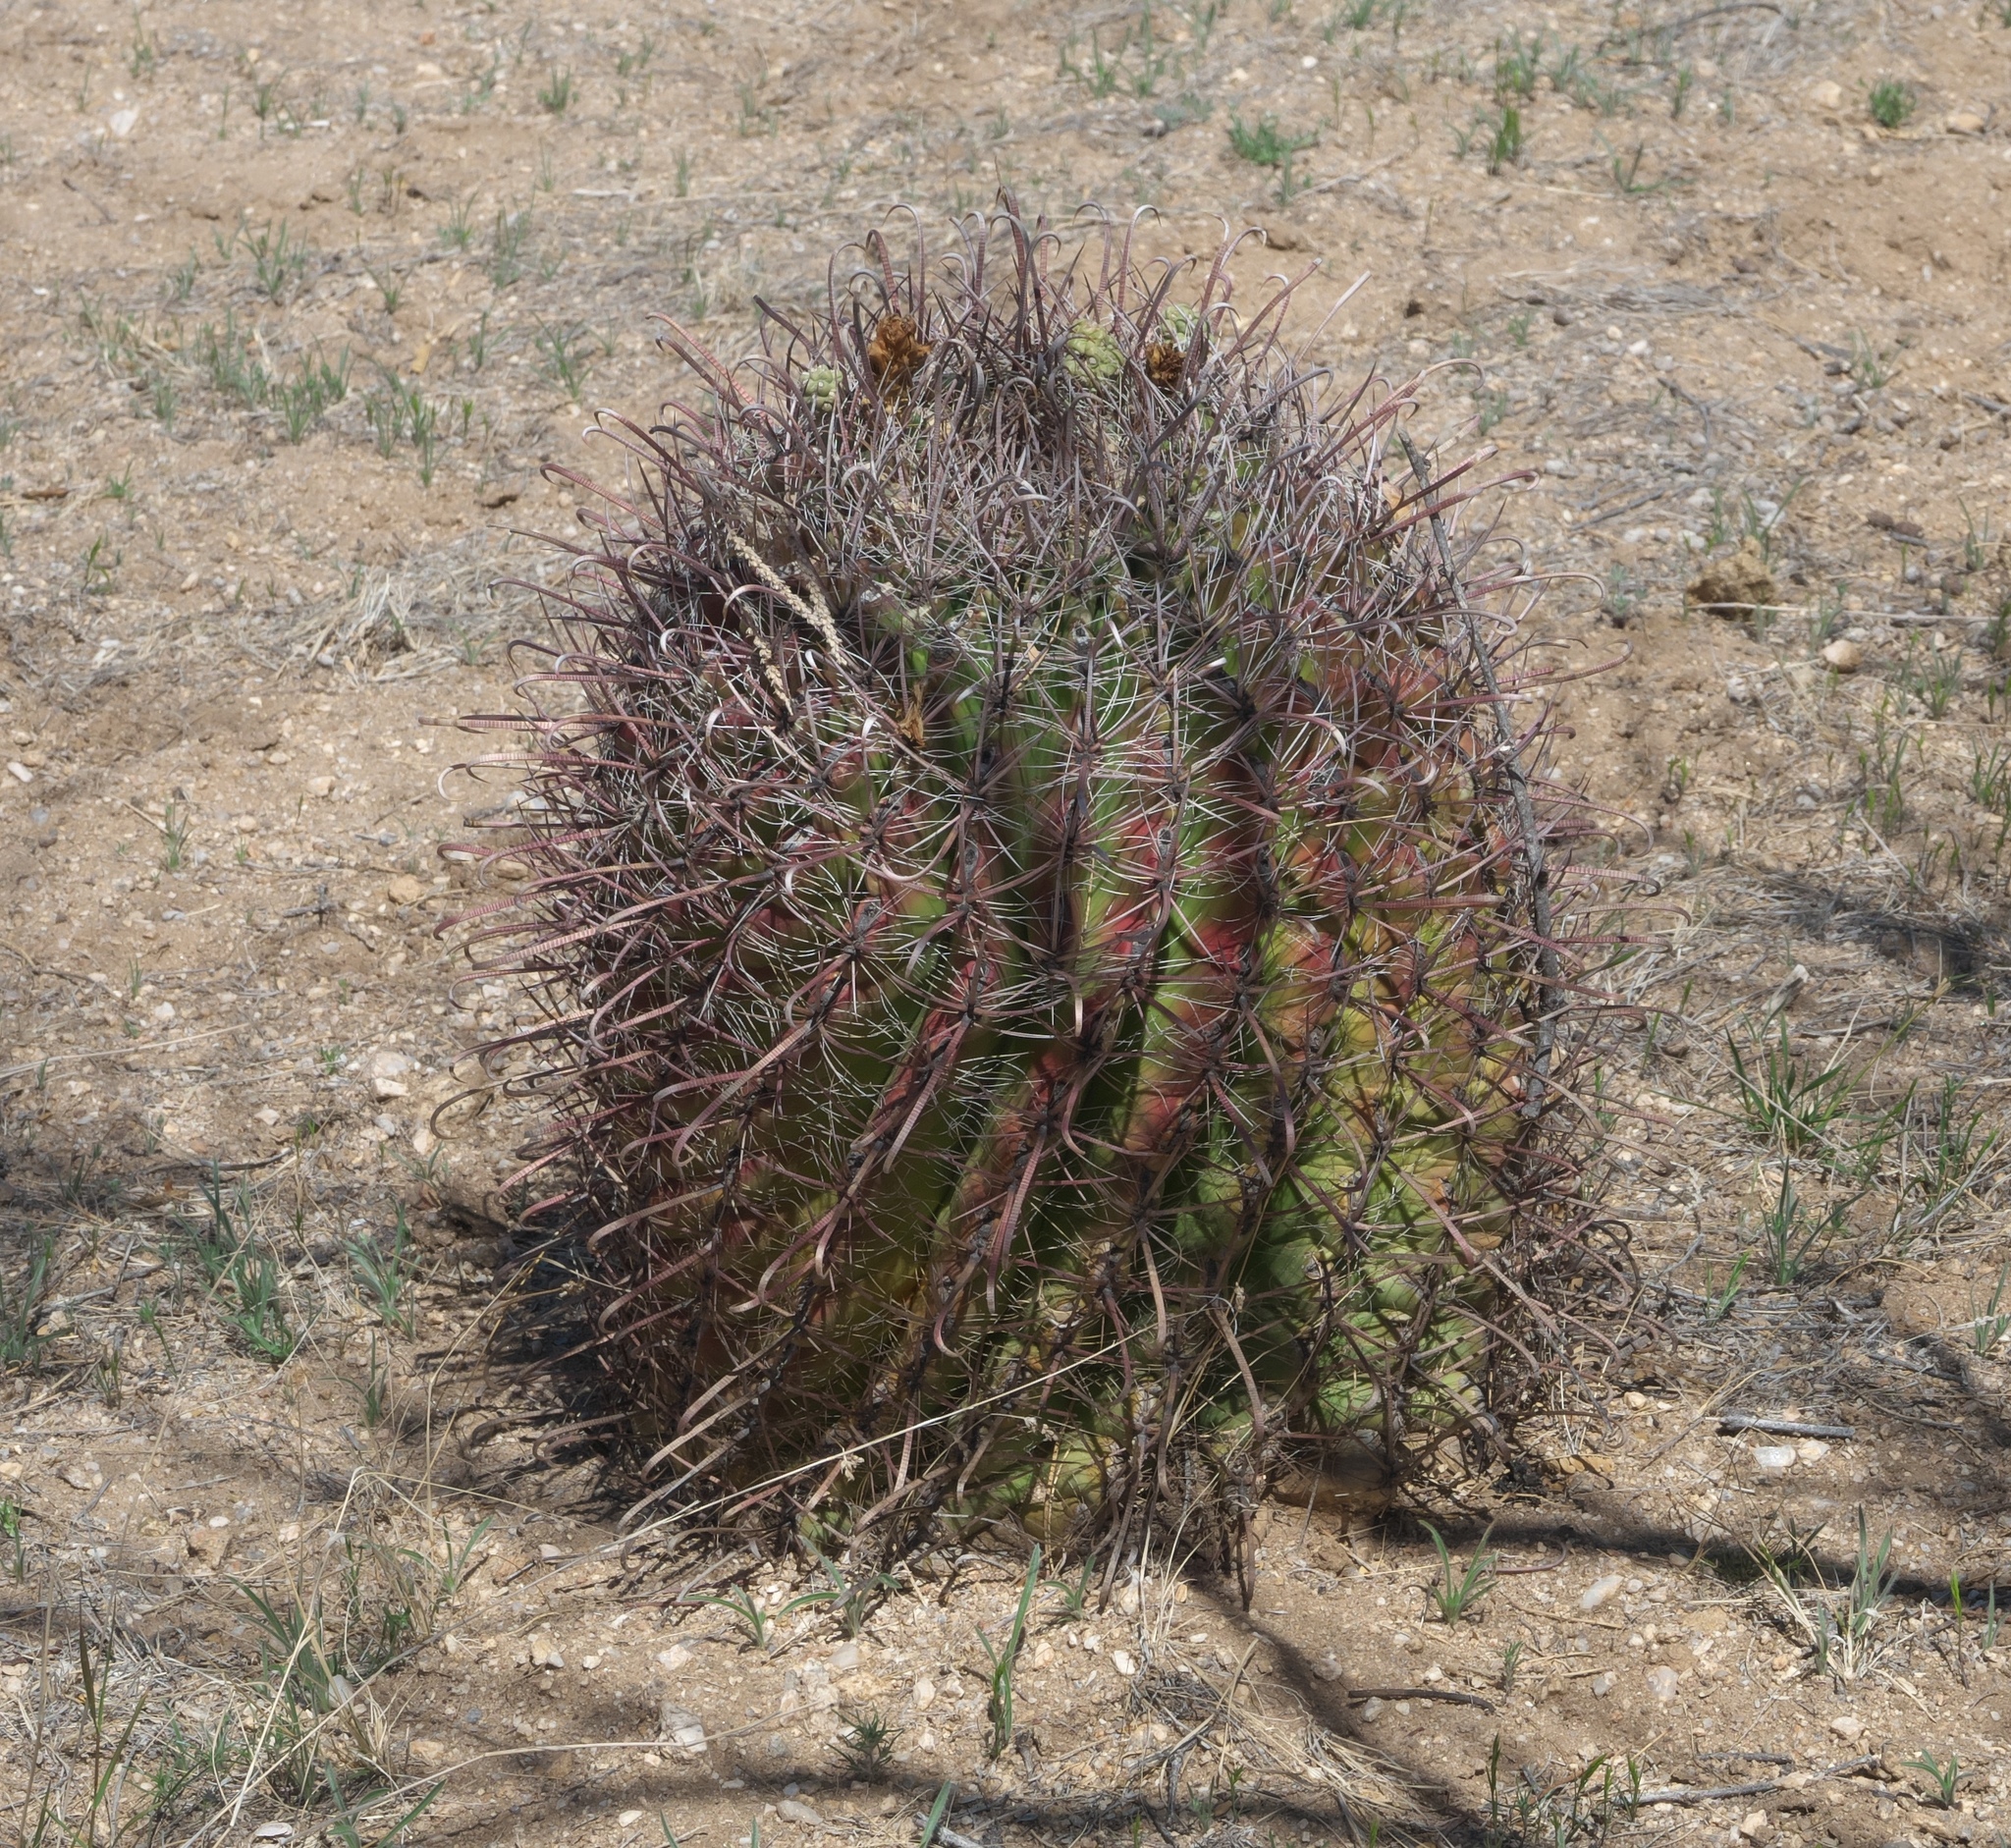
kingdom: Plantae
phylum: Tracheophyta
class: Magnoliopsida
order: Caryophyllales
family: Cactaceae
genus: Ferocactus
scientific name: Ferocactus wislizeni
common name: Candy barrel cactus
